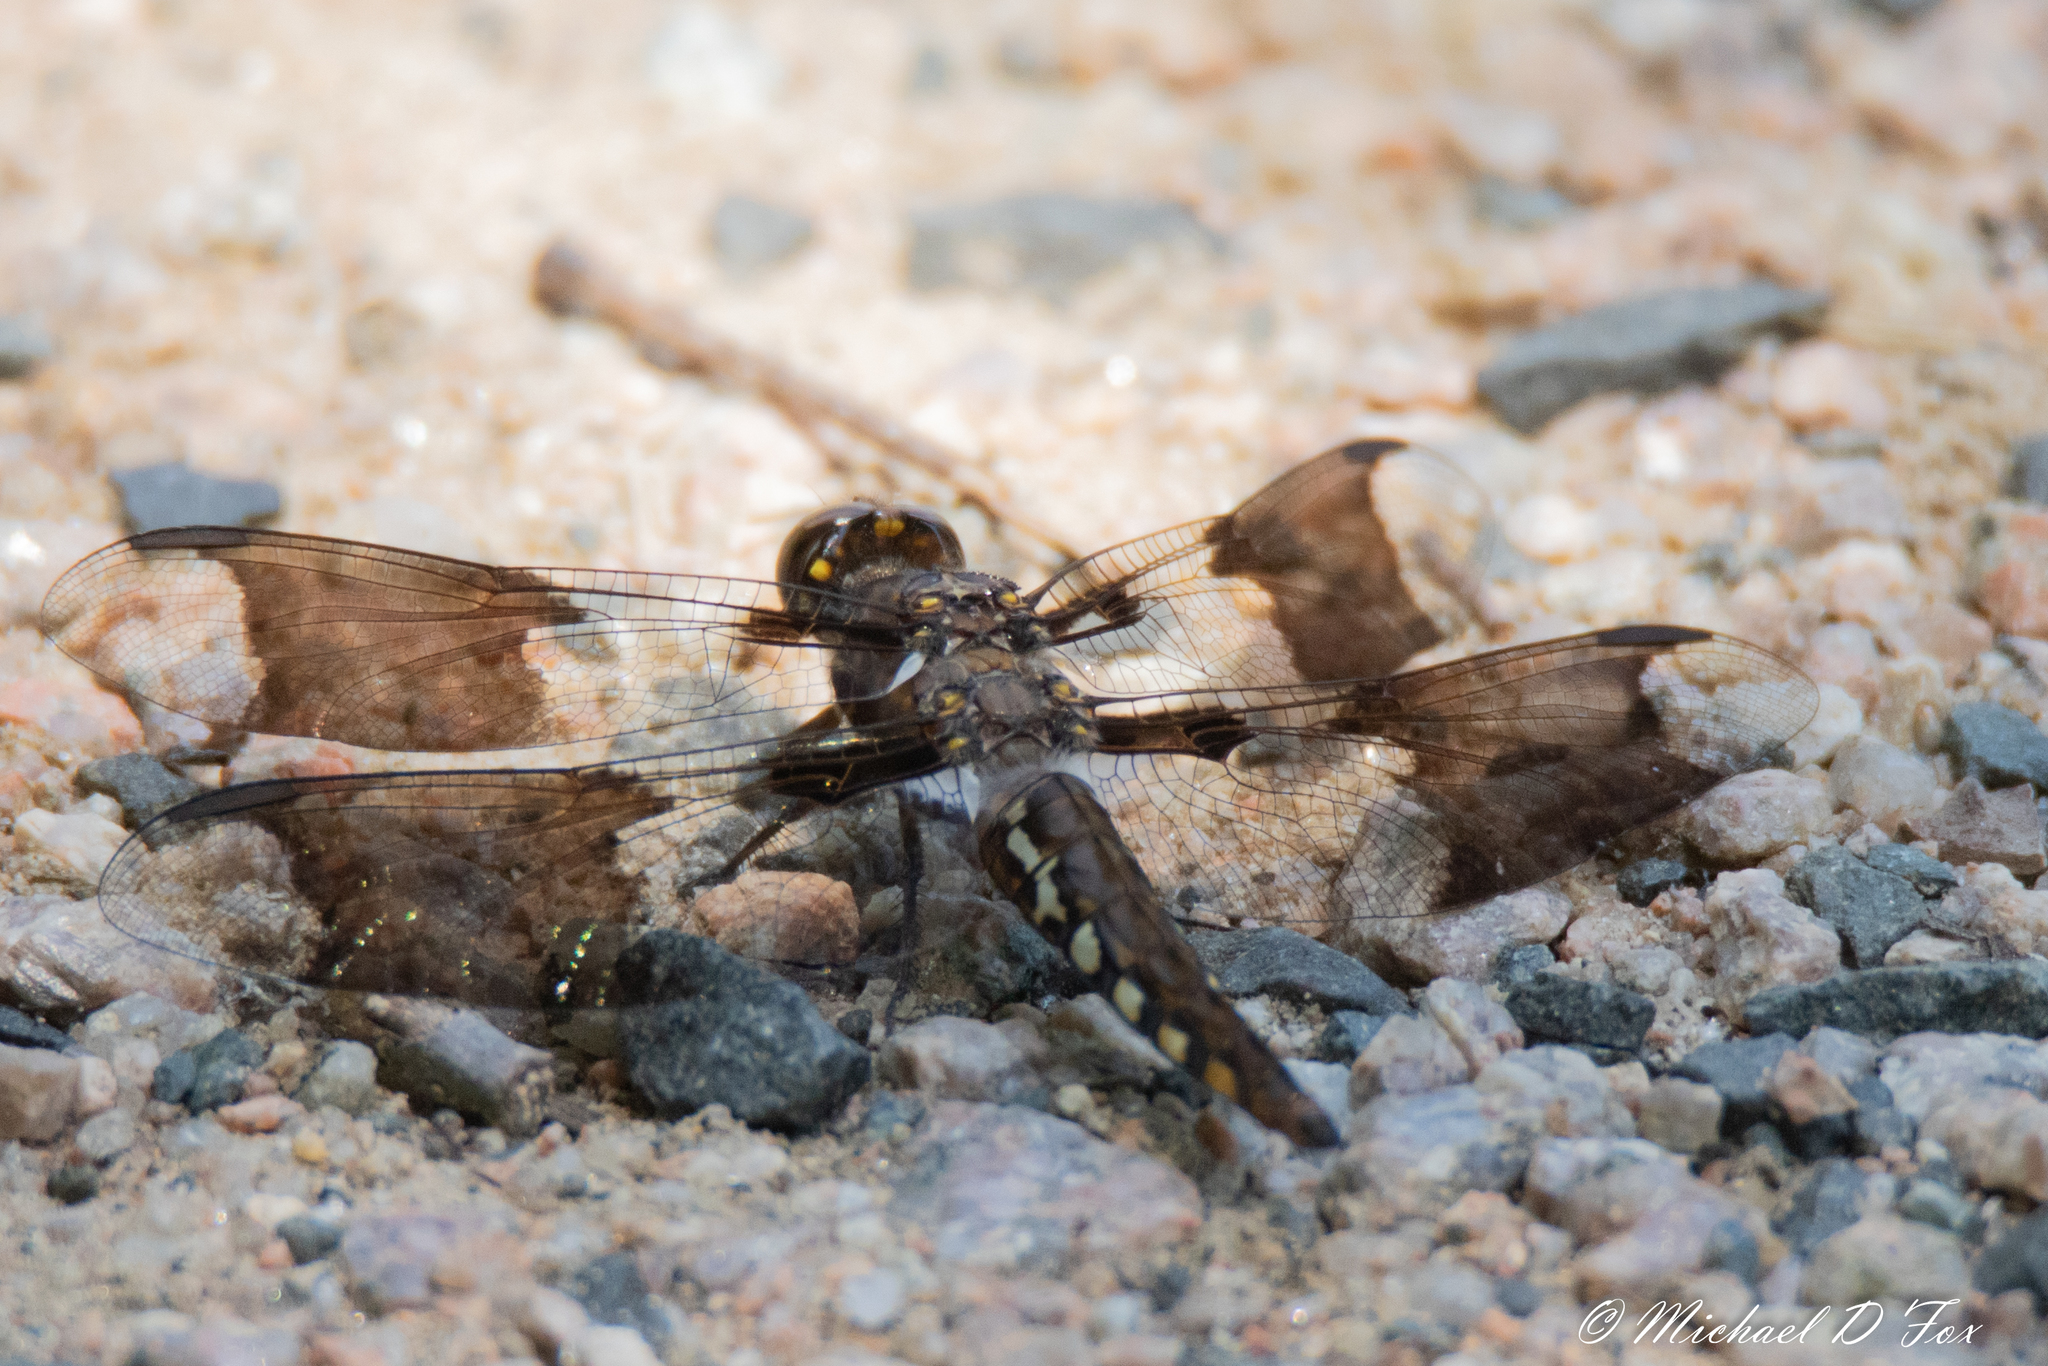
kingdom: Animalia
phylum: Arthropoda
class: Insecta
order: Odonata
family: Libellulidae
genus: Plathemis
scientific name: Plathemis lydia
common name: Common whitetail
